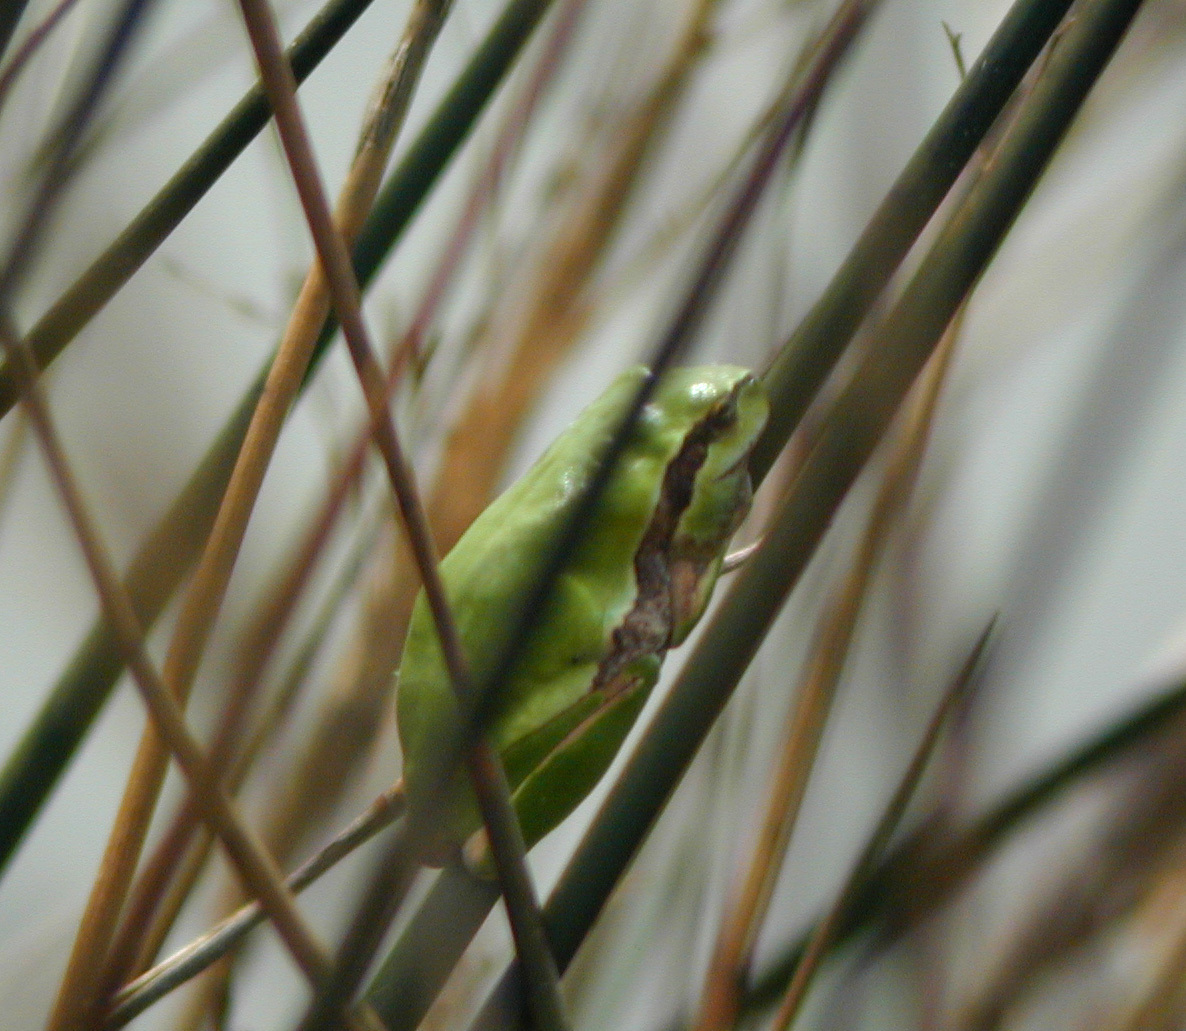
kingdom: Animalia
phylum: Chordata
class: Amphibia
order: Anura
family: Hylidae
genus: Hyla
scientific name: Hyla meridionalis
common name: Stripeless tree frog
